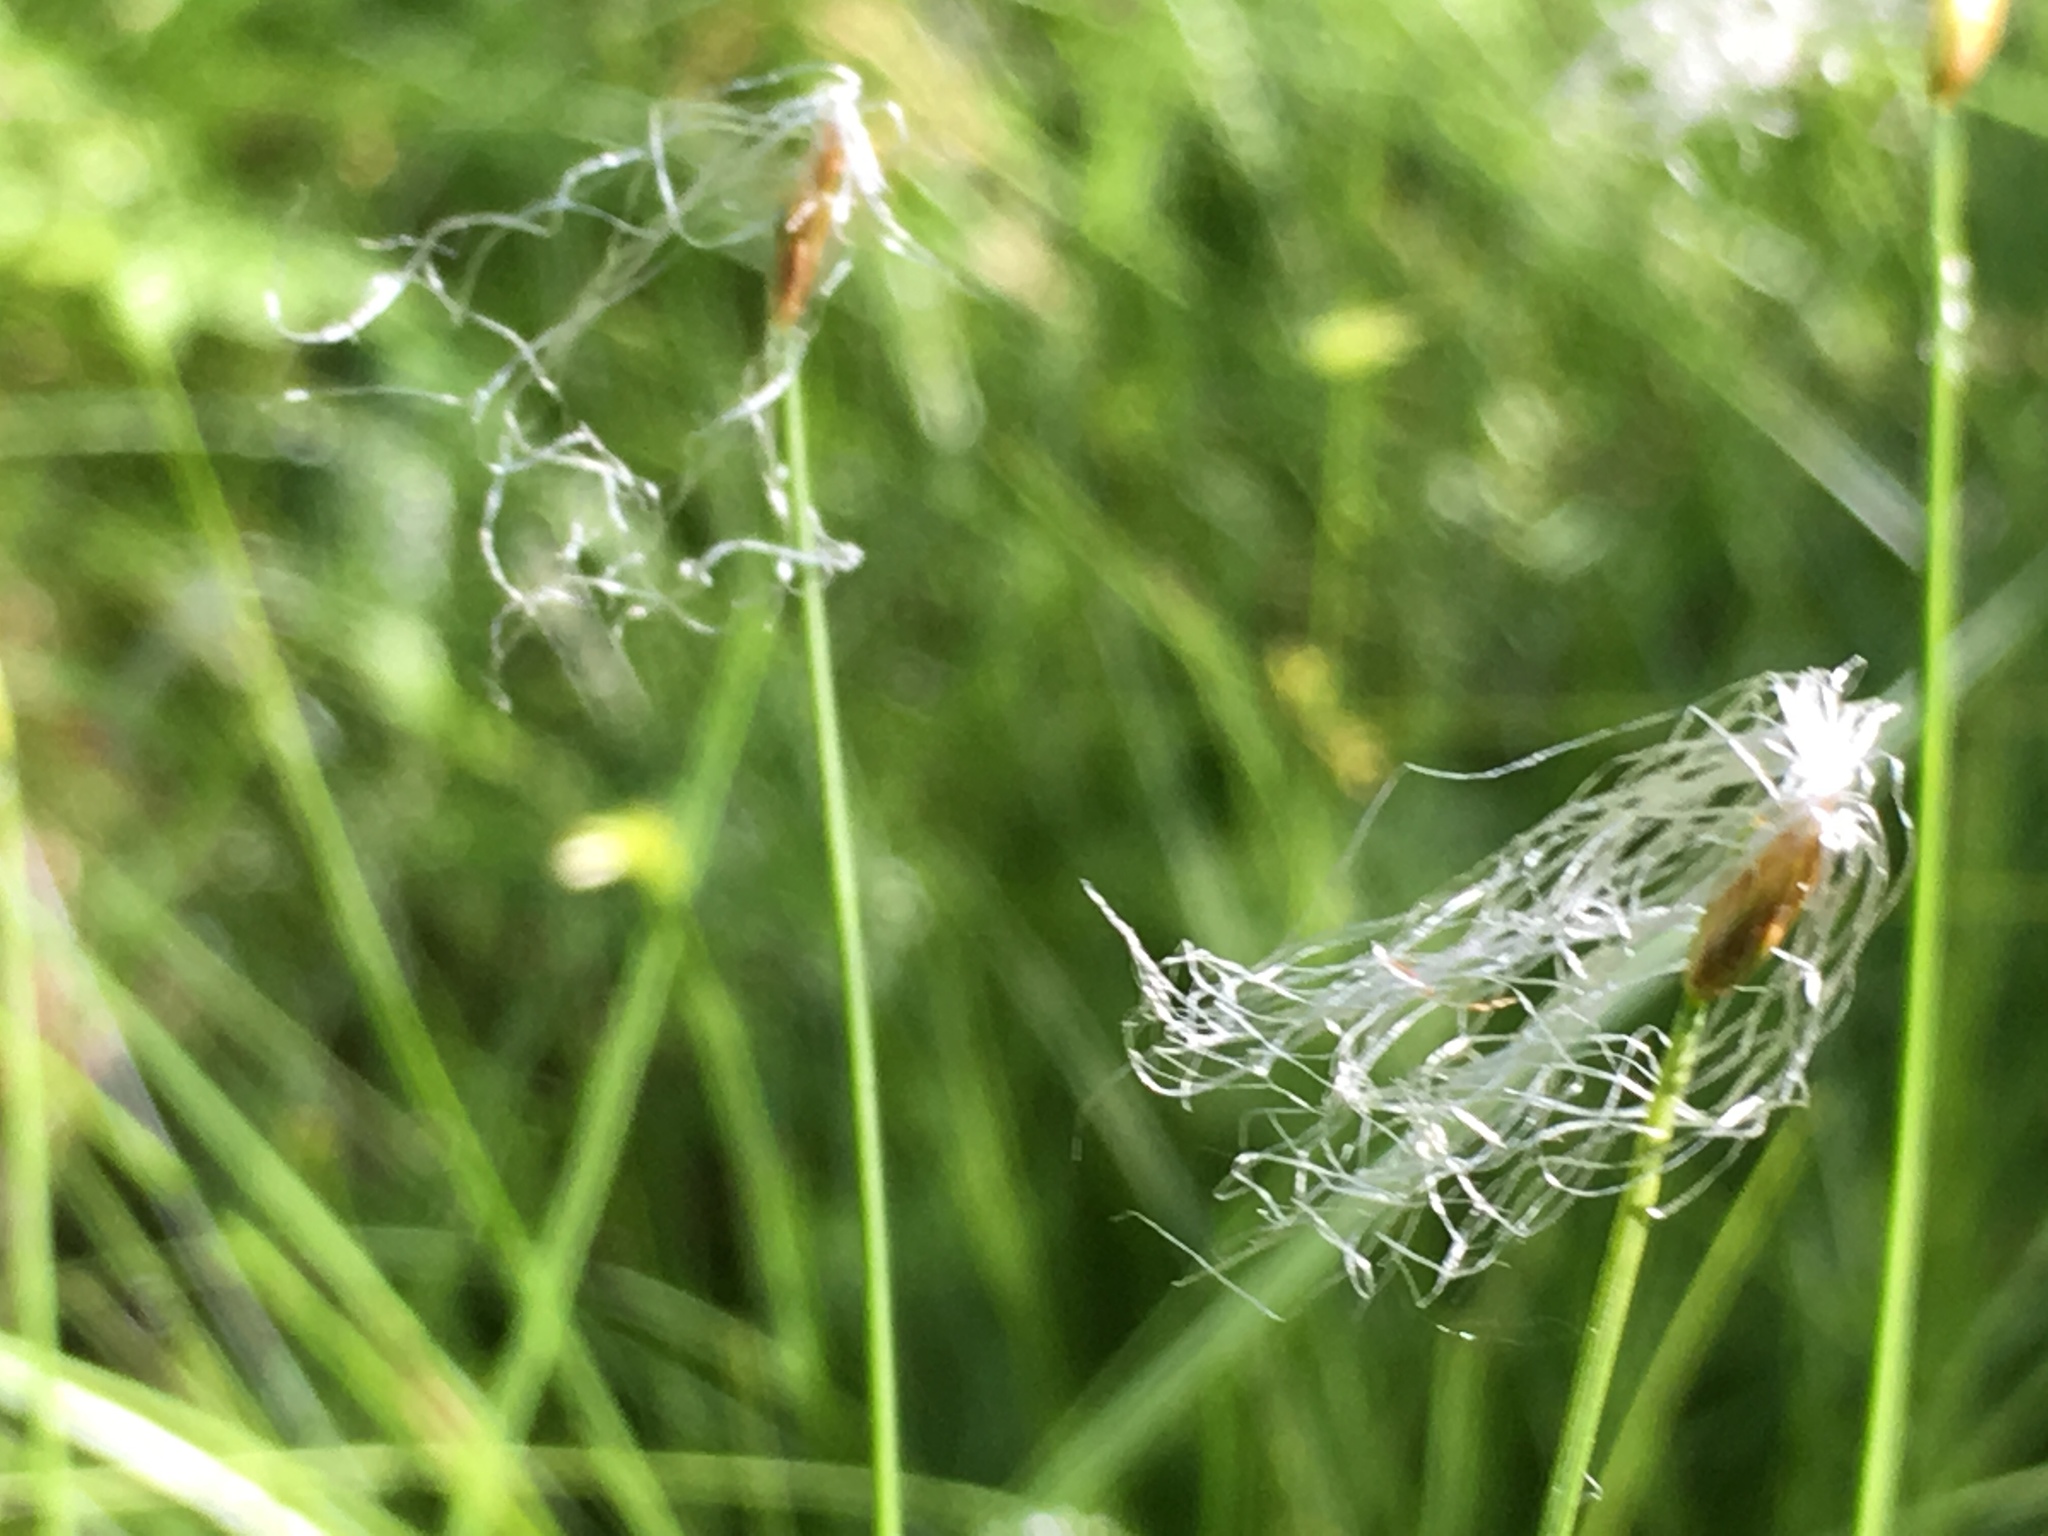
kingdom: Plantae
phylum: Tracheophyta
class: Liliopsida
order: Poales
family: Cyperaceae
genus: Trichophorum
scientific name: Trichophorum alpinum
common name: Alpine bulrush
